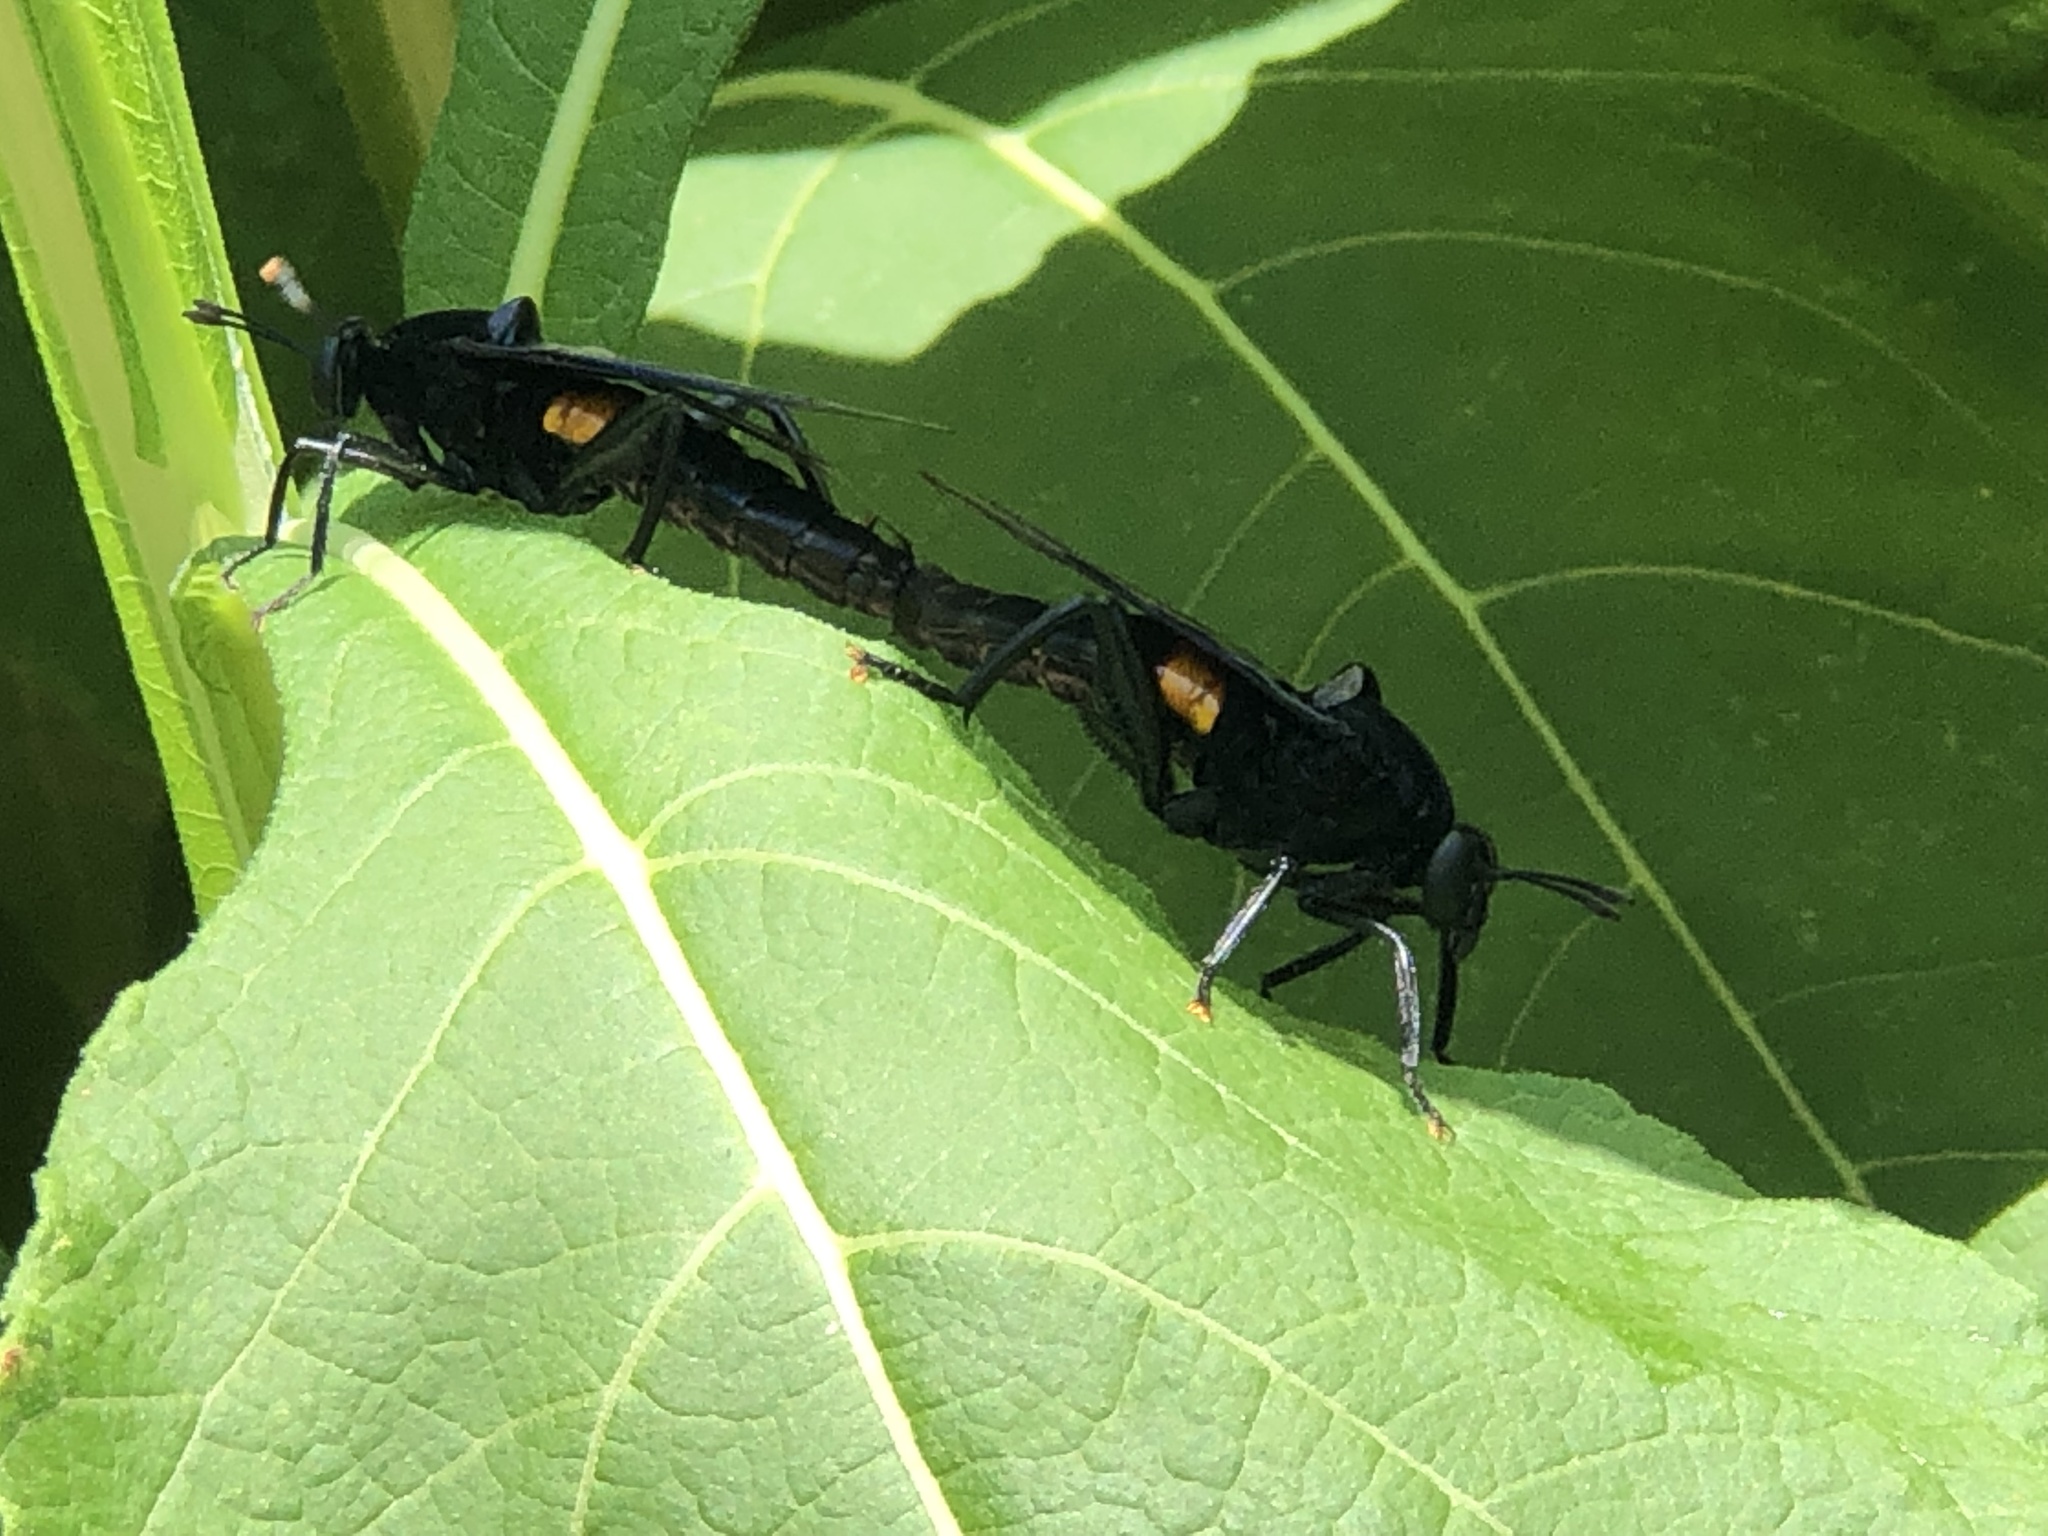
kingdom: Animalia
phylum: Arthropoda
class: Insecta
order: Diptera
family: Mydidae
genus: Mydas
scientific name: Mydas clavatus
